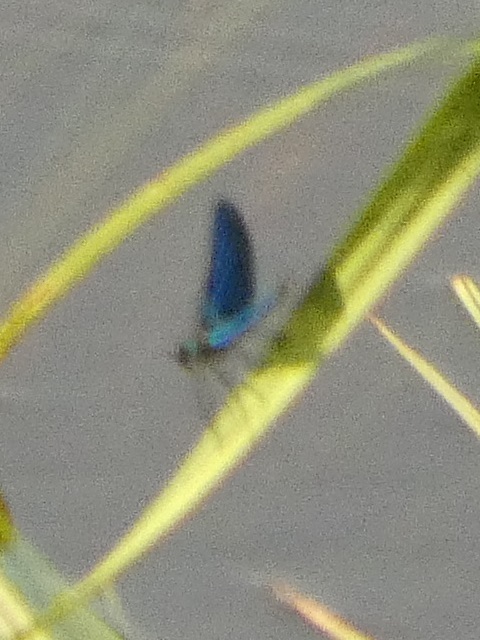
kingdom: Animalia
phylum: Arthropoda
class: Insecta
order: Odonata
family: Calopterygidae
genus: Calopteryx
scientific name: Calopteryx splendens
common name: Banded demoiselle
